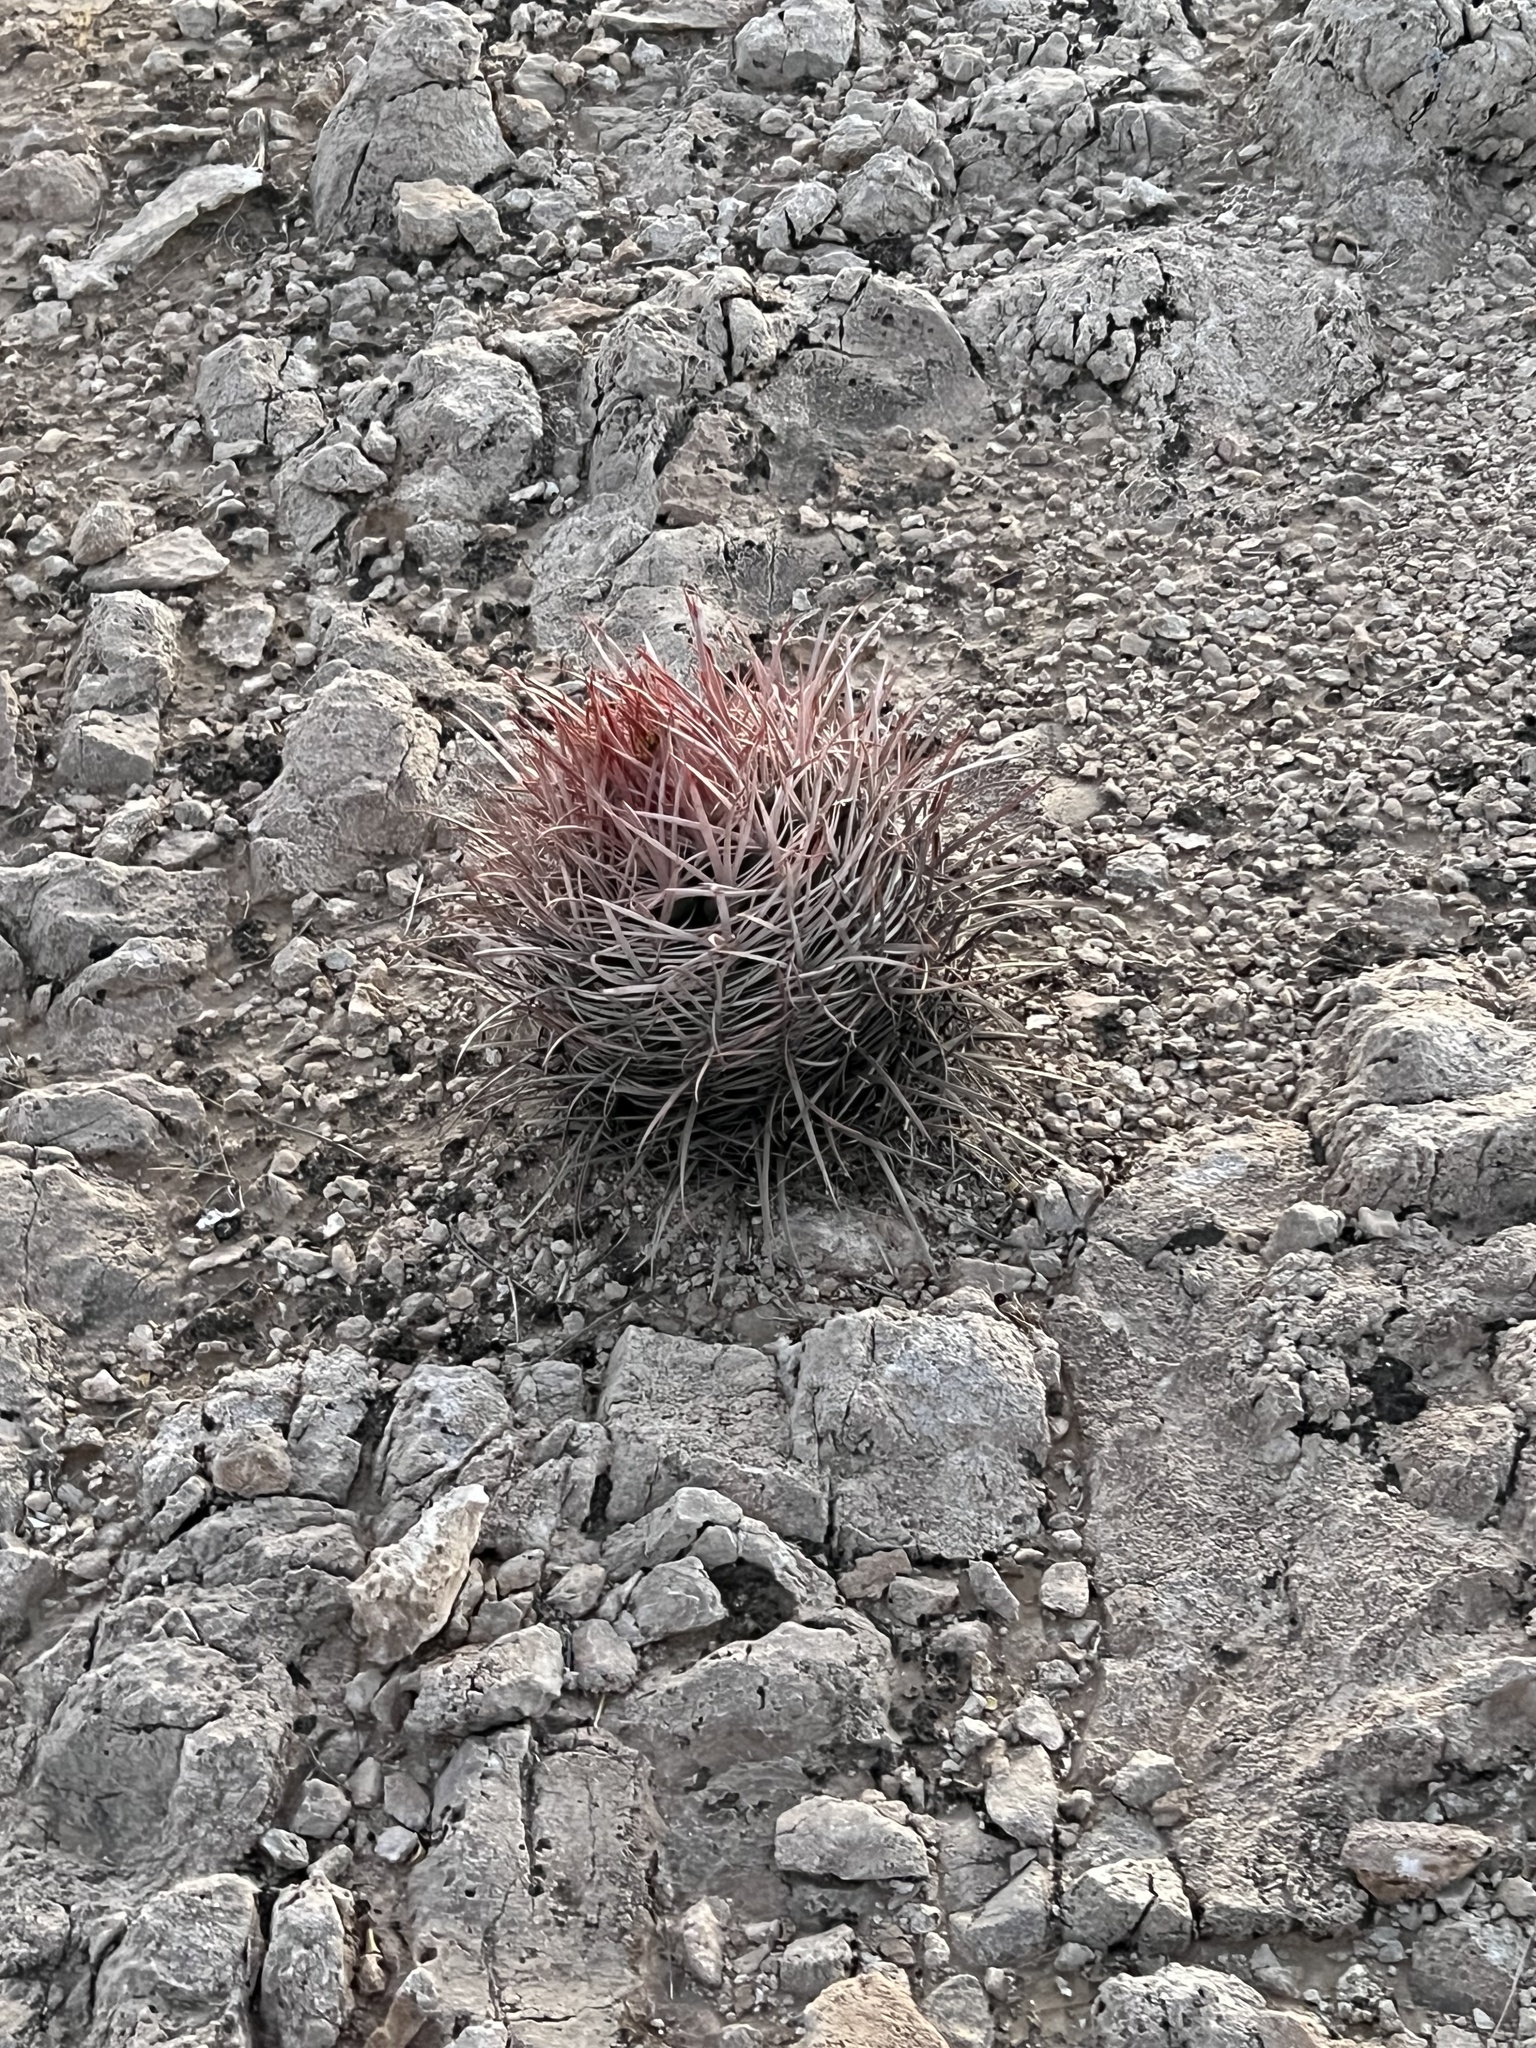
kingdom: Plantae
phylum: Tracheophyta
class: Magnoliopsida
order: Caryophyllales
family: Cactaceae
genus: Echinocactus
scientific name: Echinocactus polycephalus
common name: Cottontop cactus
